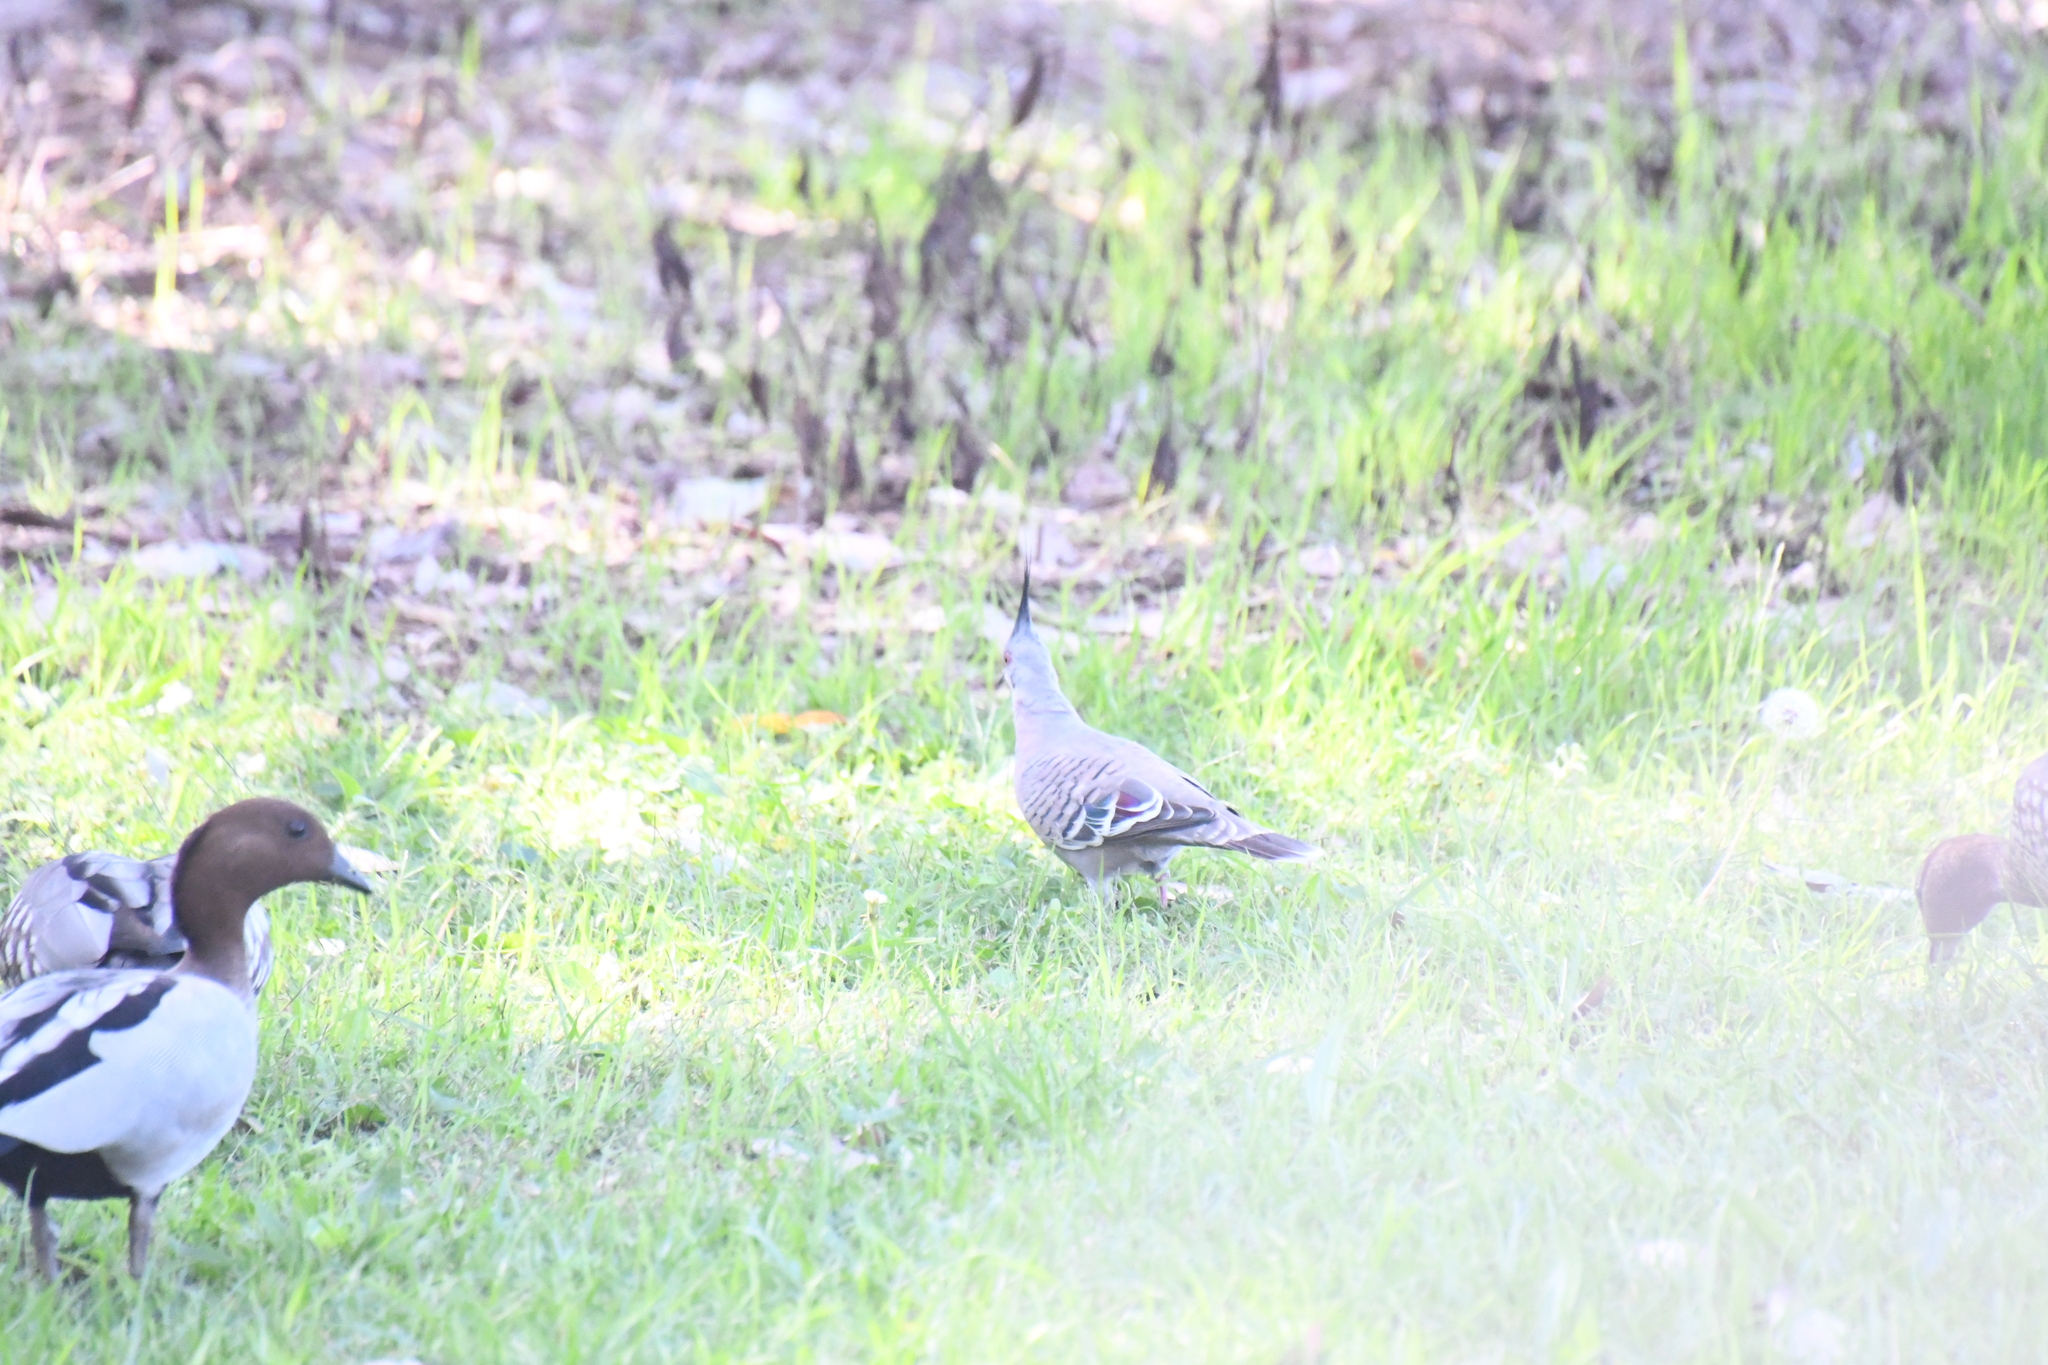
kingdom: Animalia
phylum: Chordata
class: Aves
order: Columbiformes
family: Columbidae
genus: Ocyphaps
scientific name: Ocyphaps lophotes
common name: Crested pigeon
